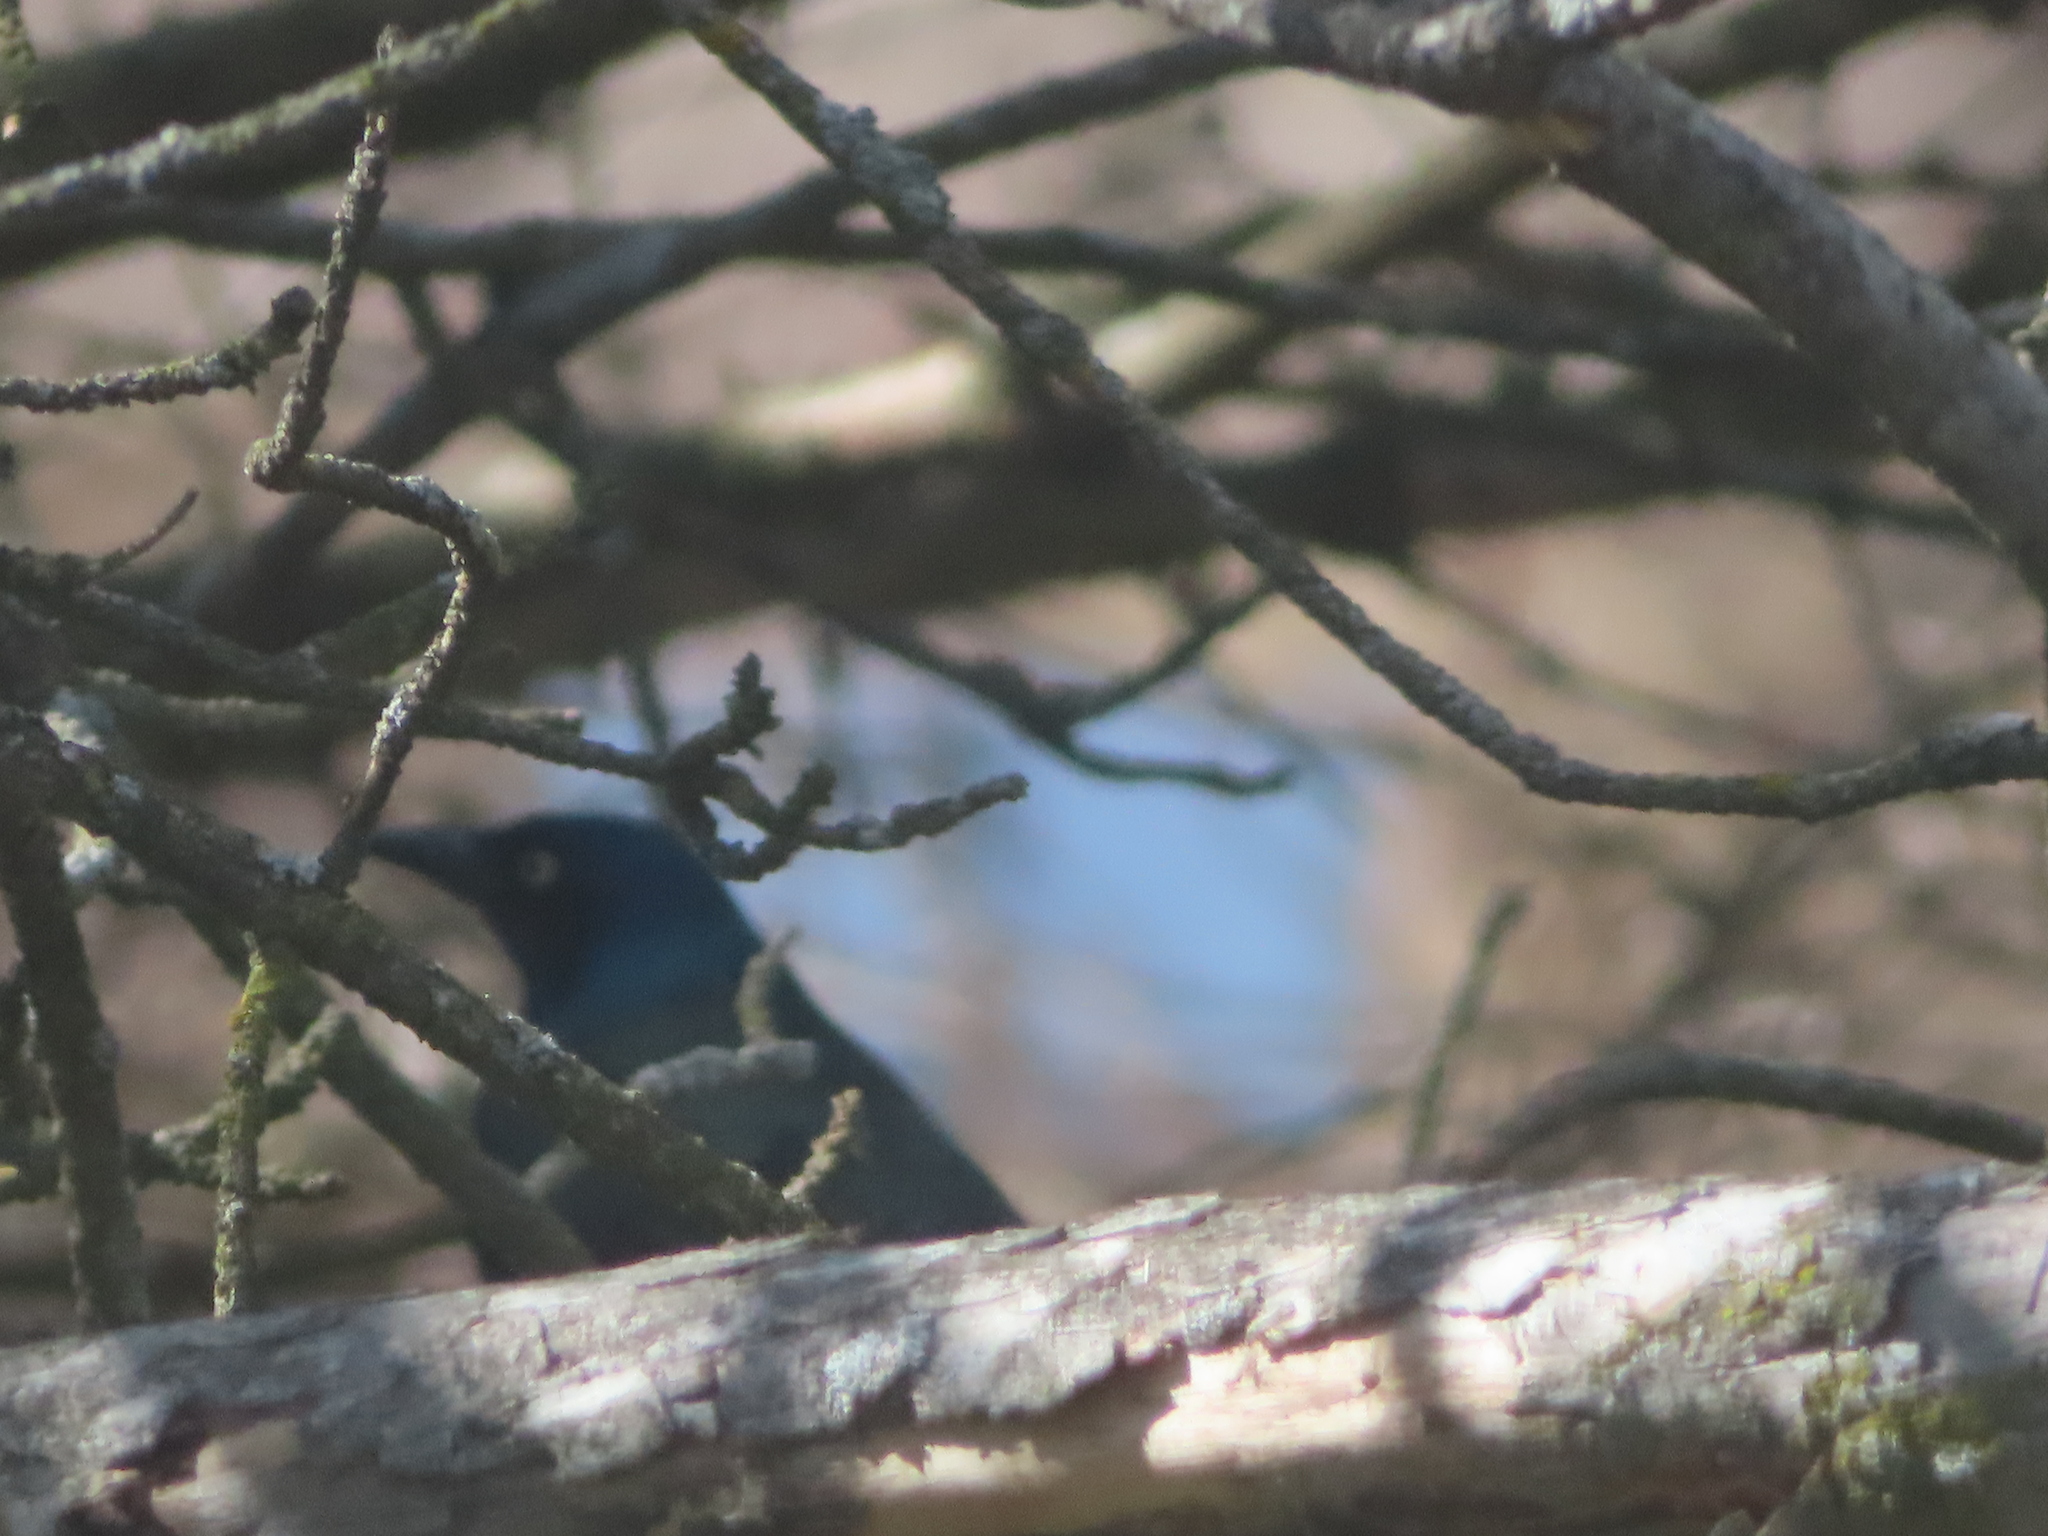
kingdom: Animalia
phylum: Chordata
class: Aves
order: Passeriformes
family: Icteridae
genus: Quiscalus
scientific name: Quiscalus quiscula
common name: Common grackle
